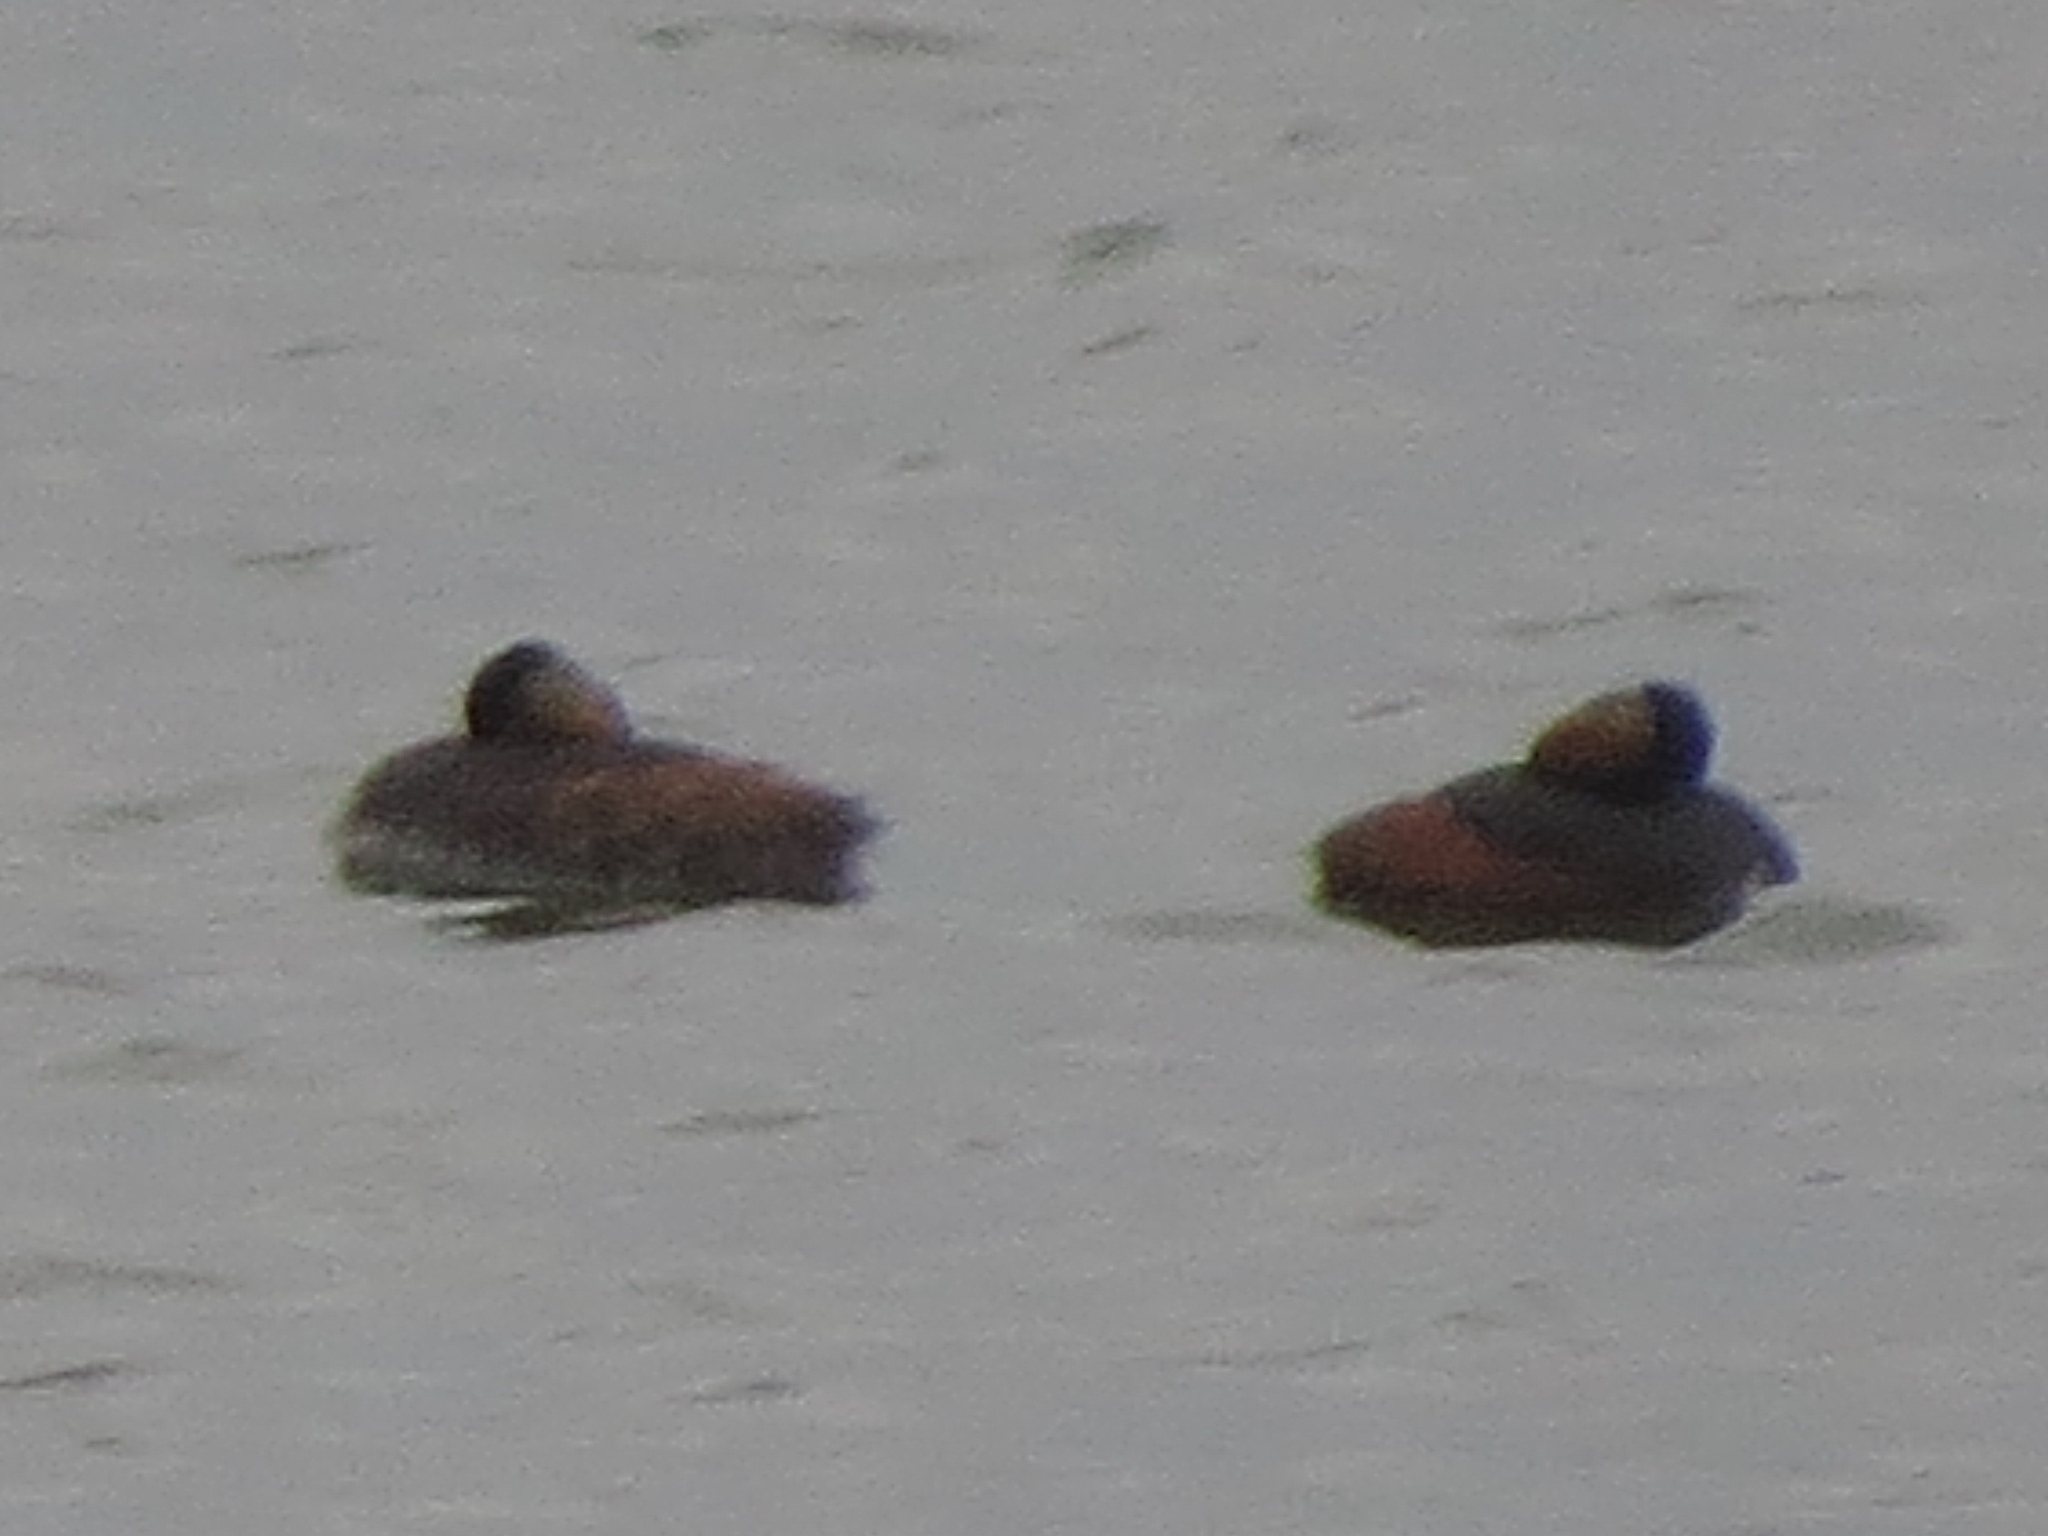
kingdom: Animalia
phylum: Chordata
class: Aves
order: Podicipediformes
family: Podicipedidae
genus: Podiceps
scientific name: Podiceps nigricollis
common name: Black-necked grebe
